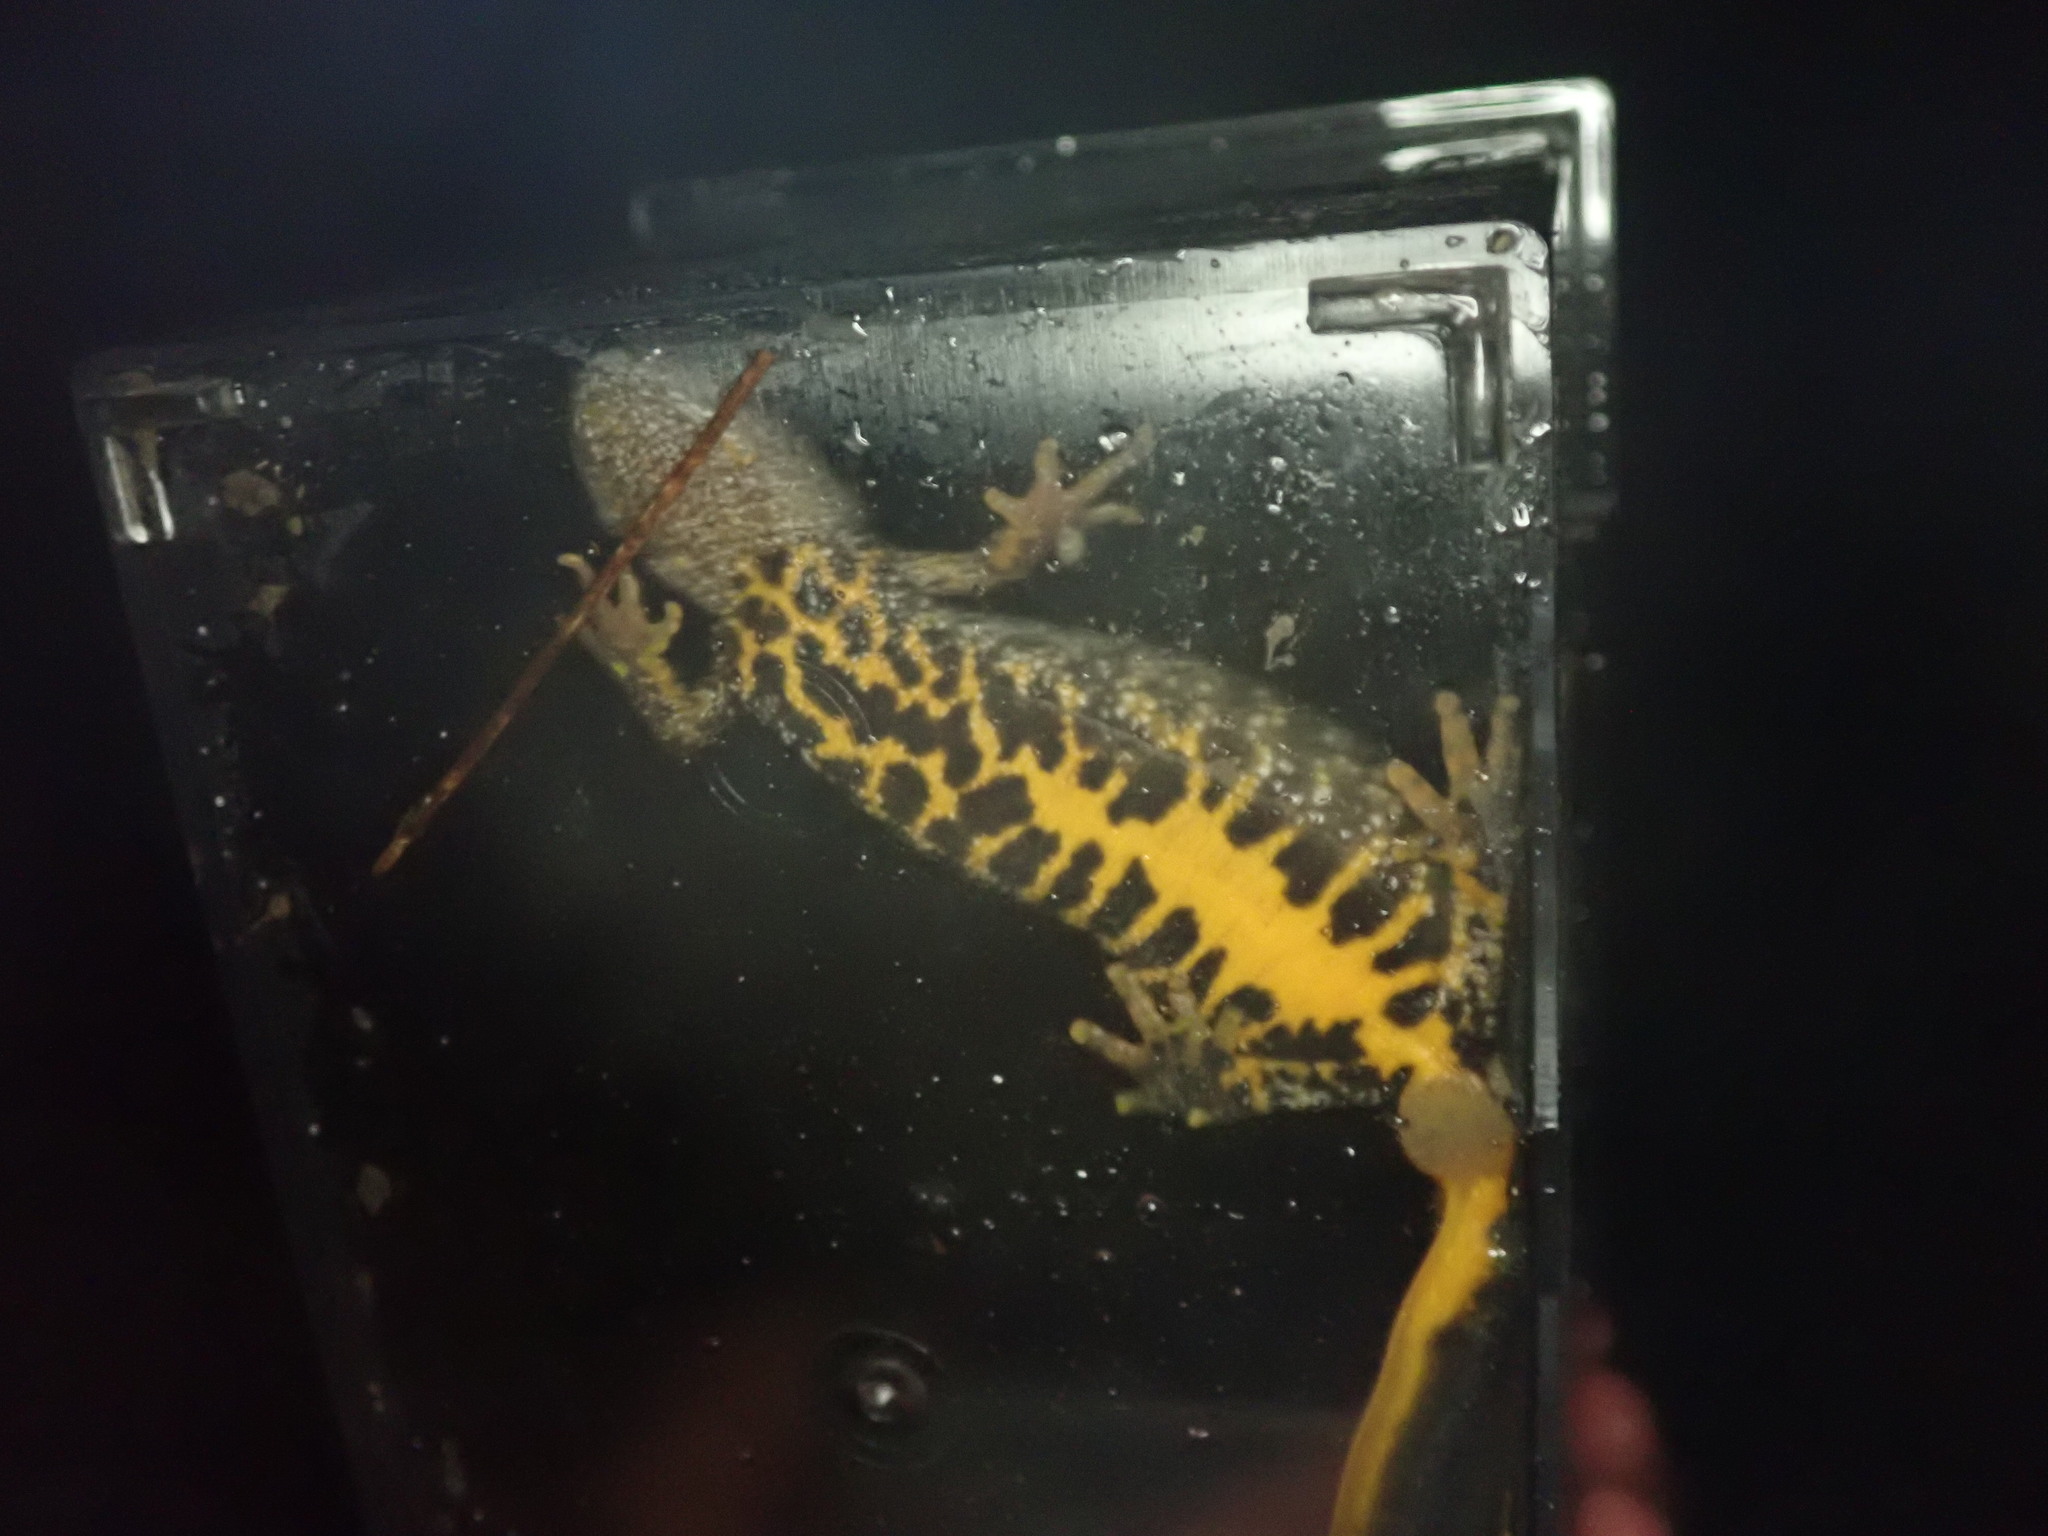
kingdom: Animalia
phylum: Chordata
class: Amphibia
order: Caudata
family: Salamandridae
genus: Triturus
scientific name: Triturus cristatus
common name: Crested newt
